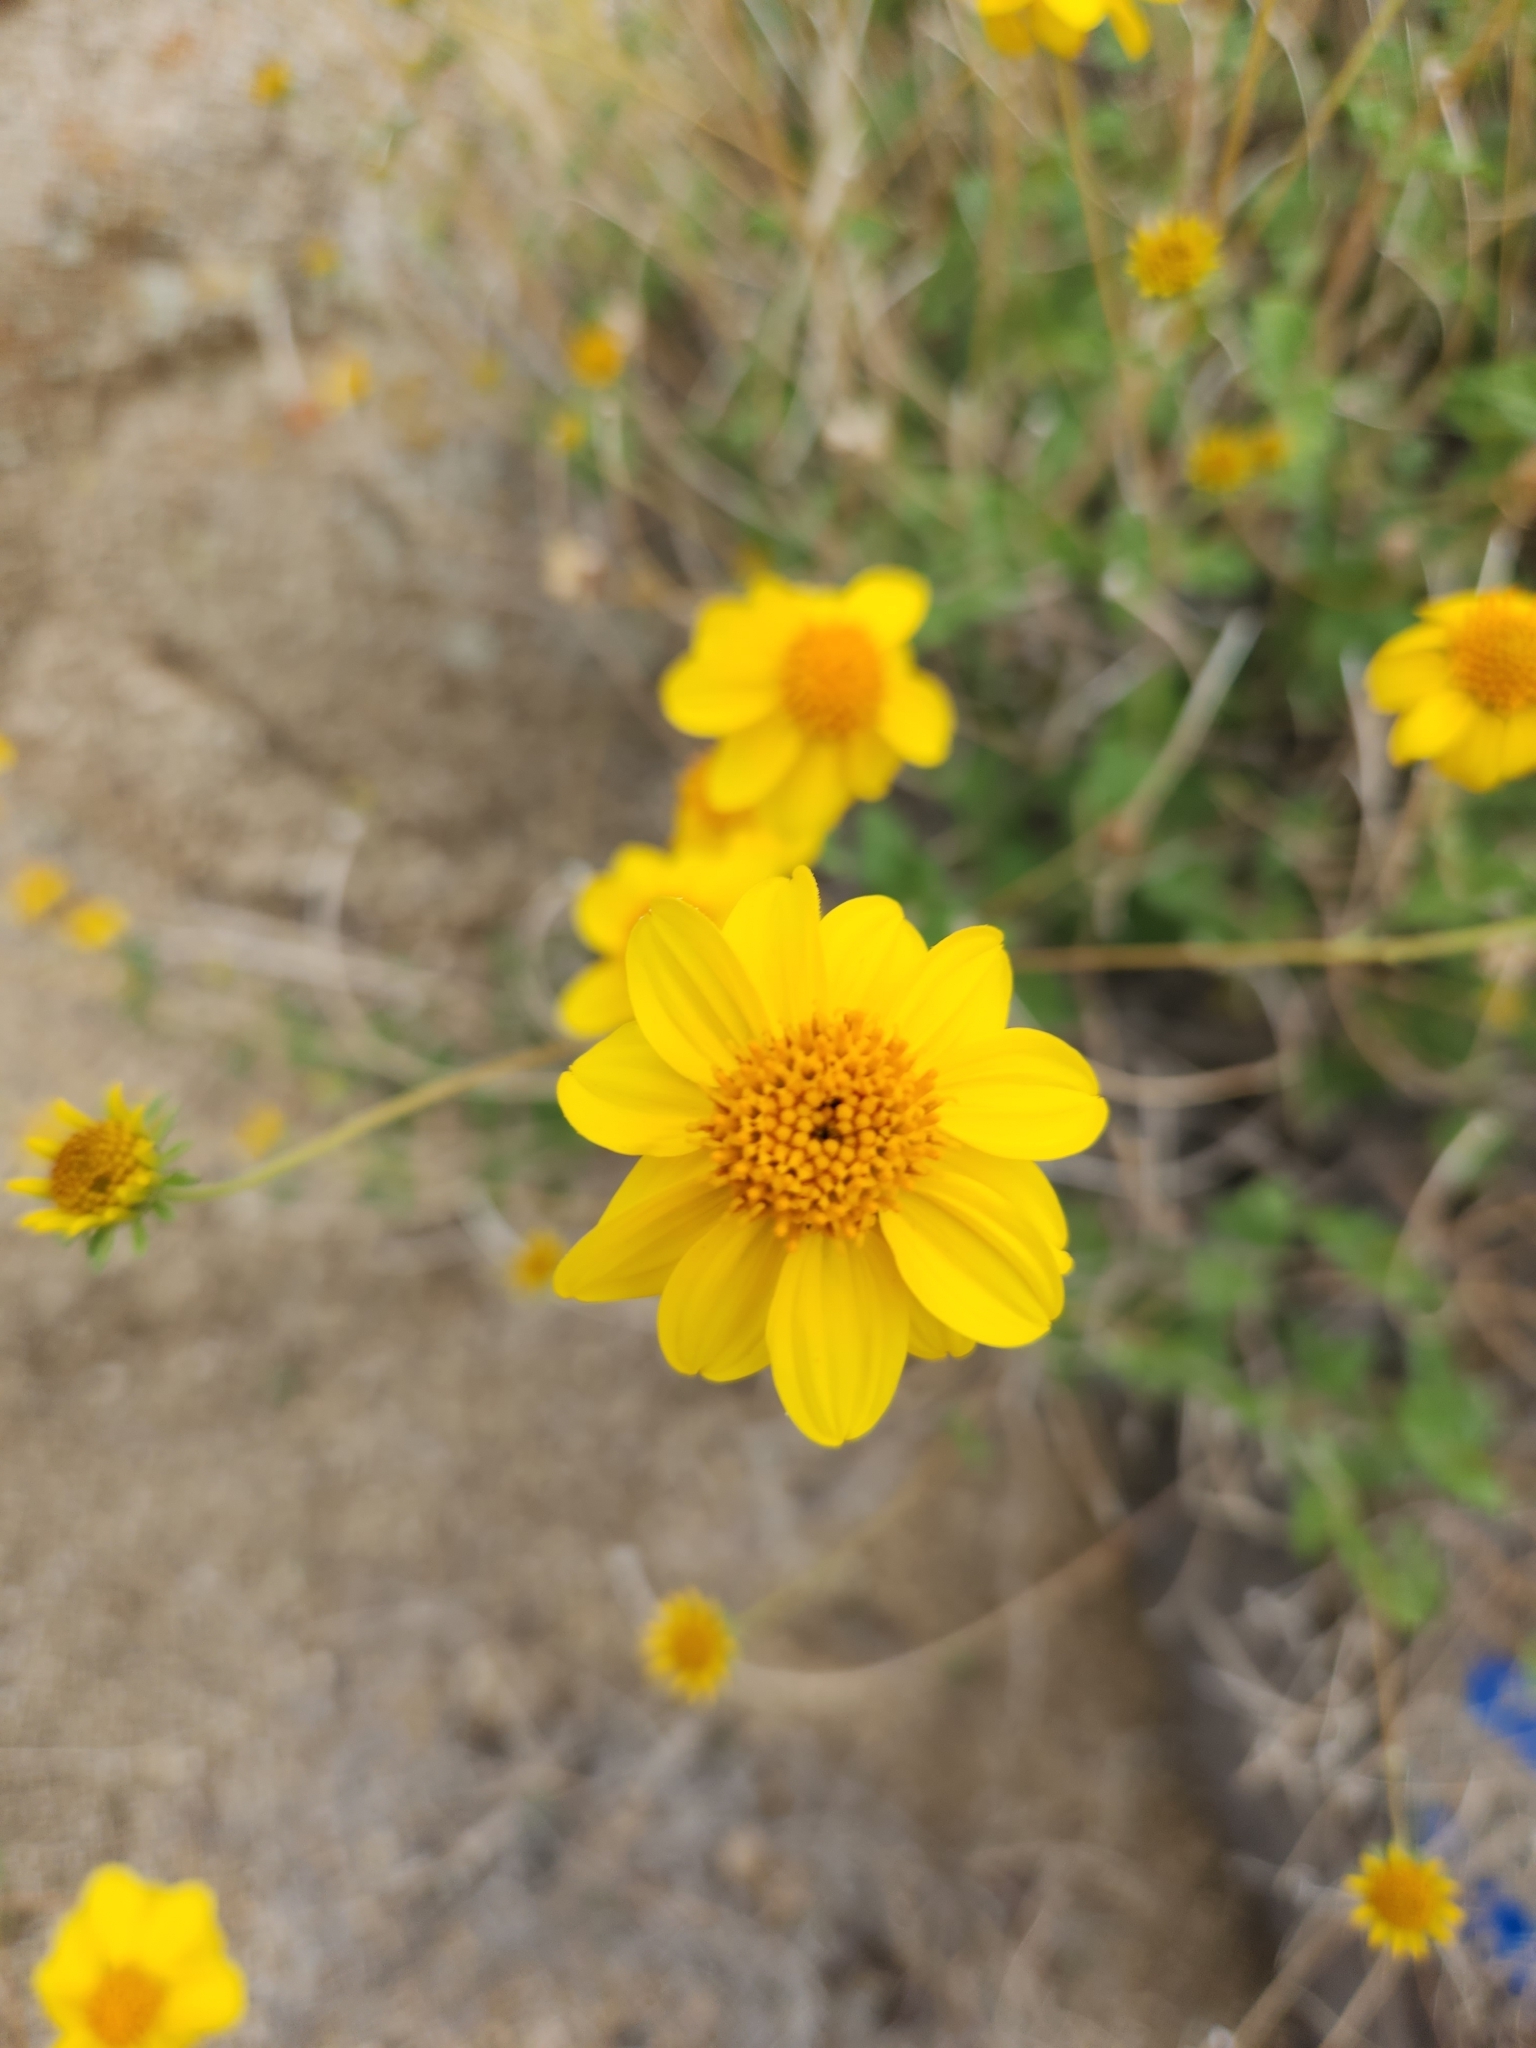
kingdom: Plantae
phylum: Tracheophyta
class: Magnoliopsida
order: Asterales
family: Asteraceae
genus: Bahiopsis
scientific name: Bahiopsis parishii
